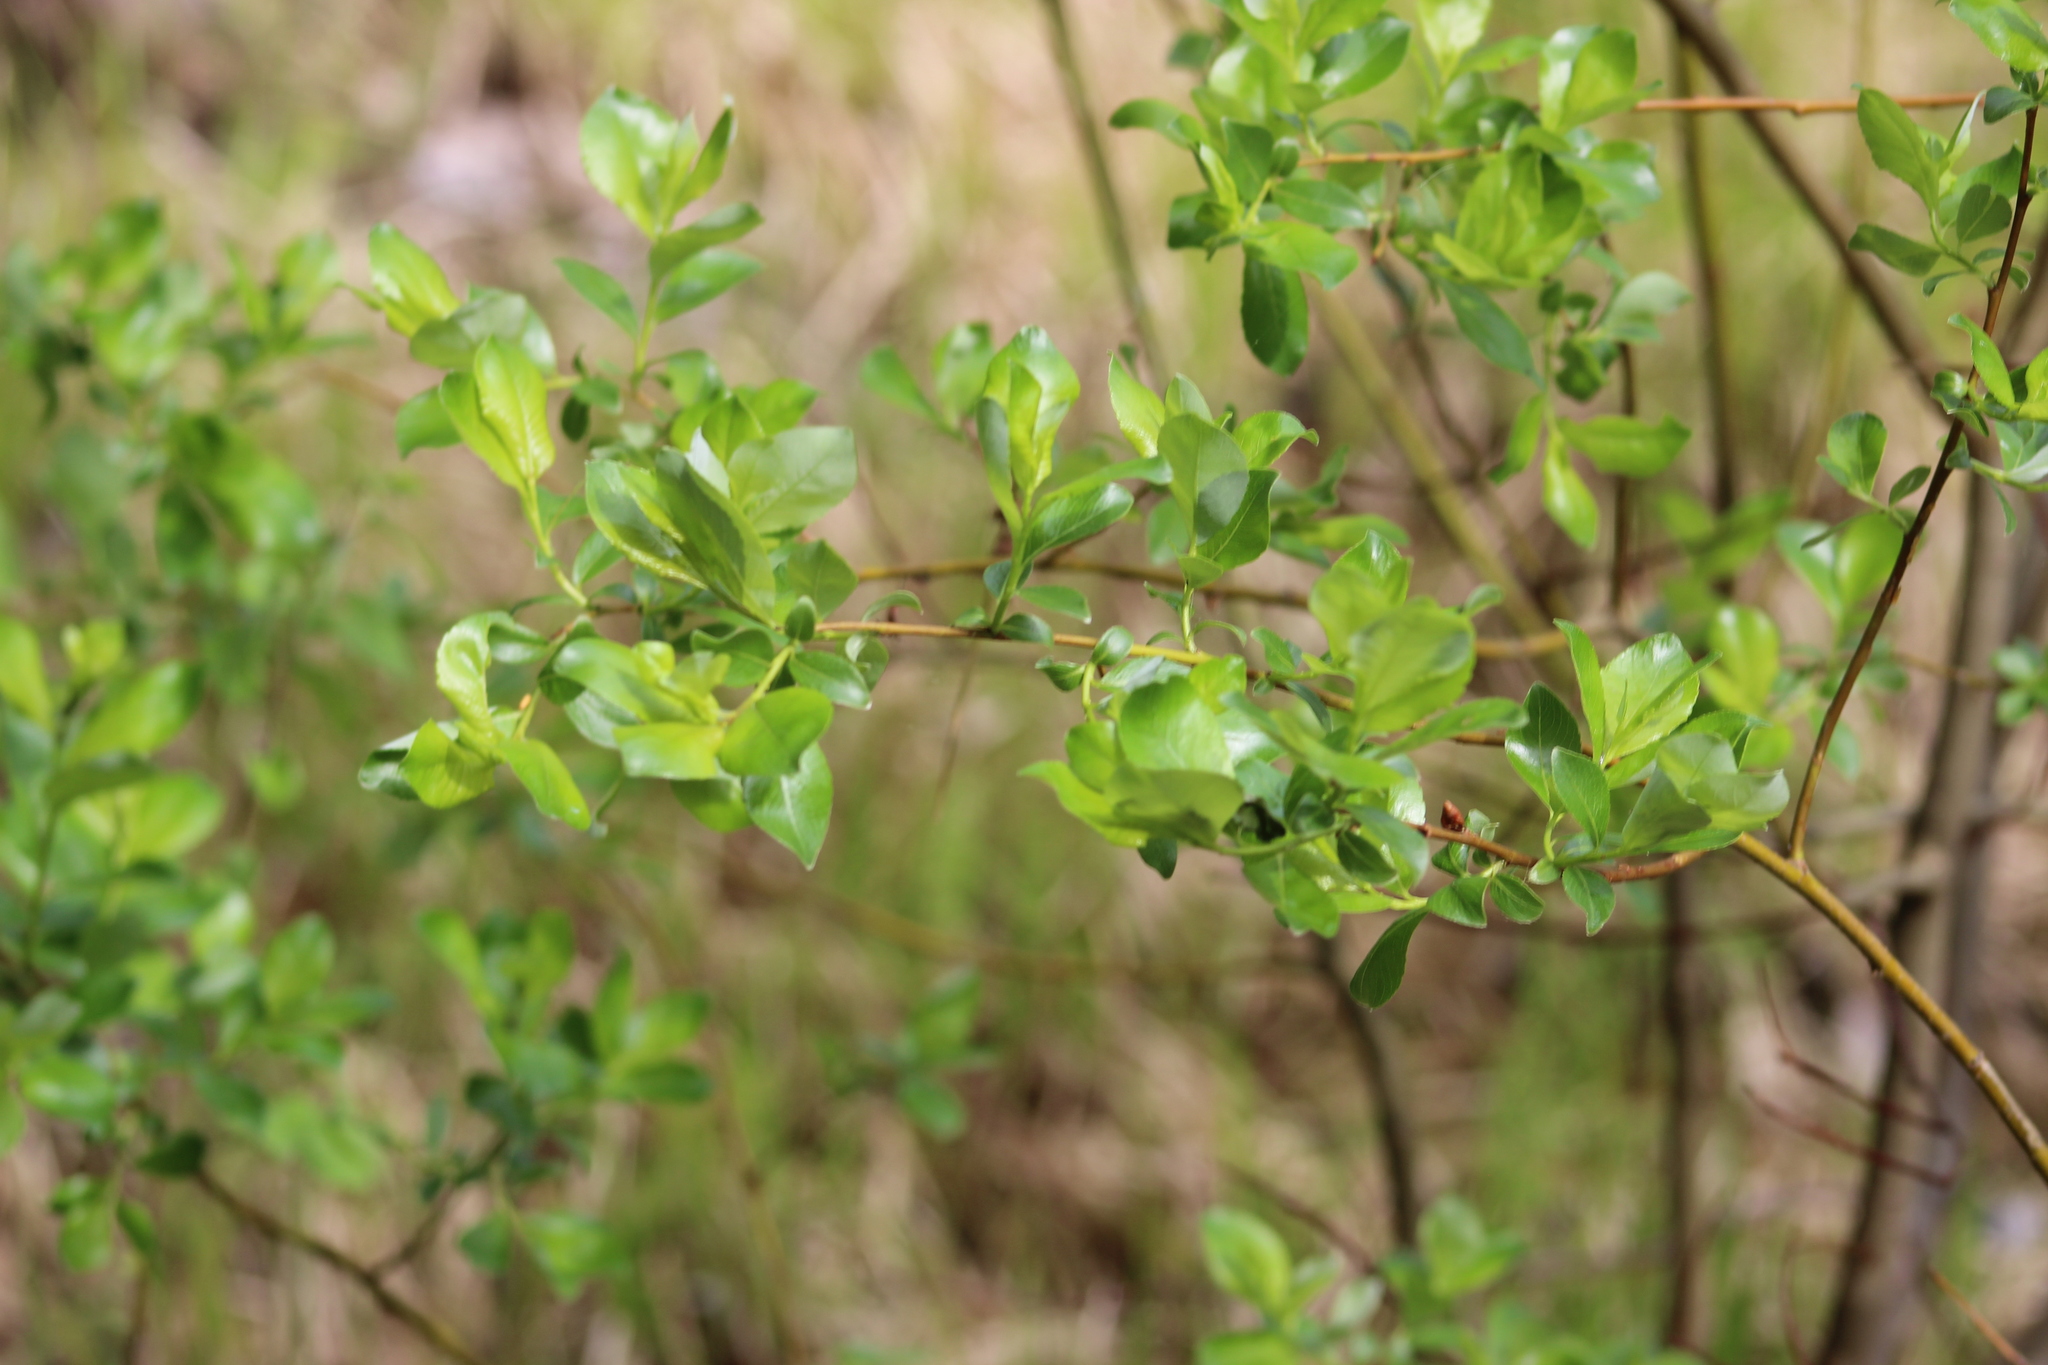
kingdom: Plantae
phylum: Tracheophyta
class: Magnoliopsida
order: Malpighiales
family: Salicaceae
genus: Salix
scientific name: Salix myrsinifolia
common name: Dark-leaved willow
